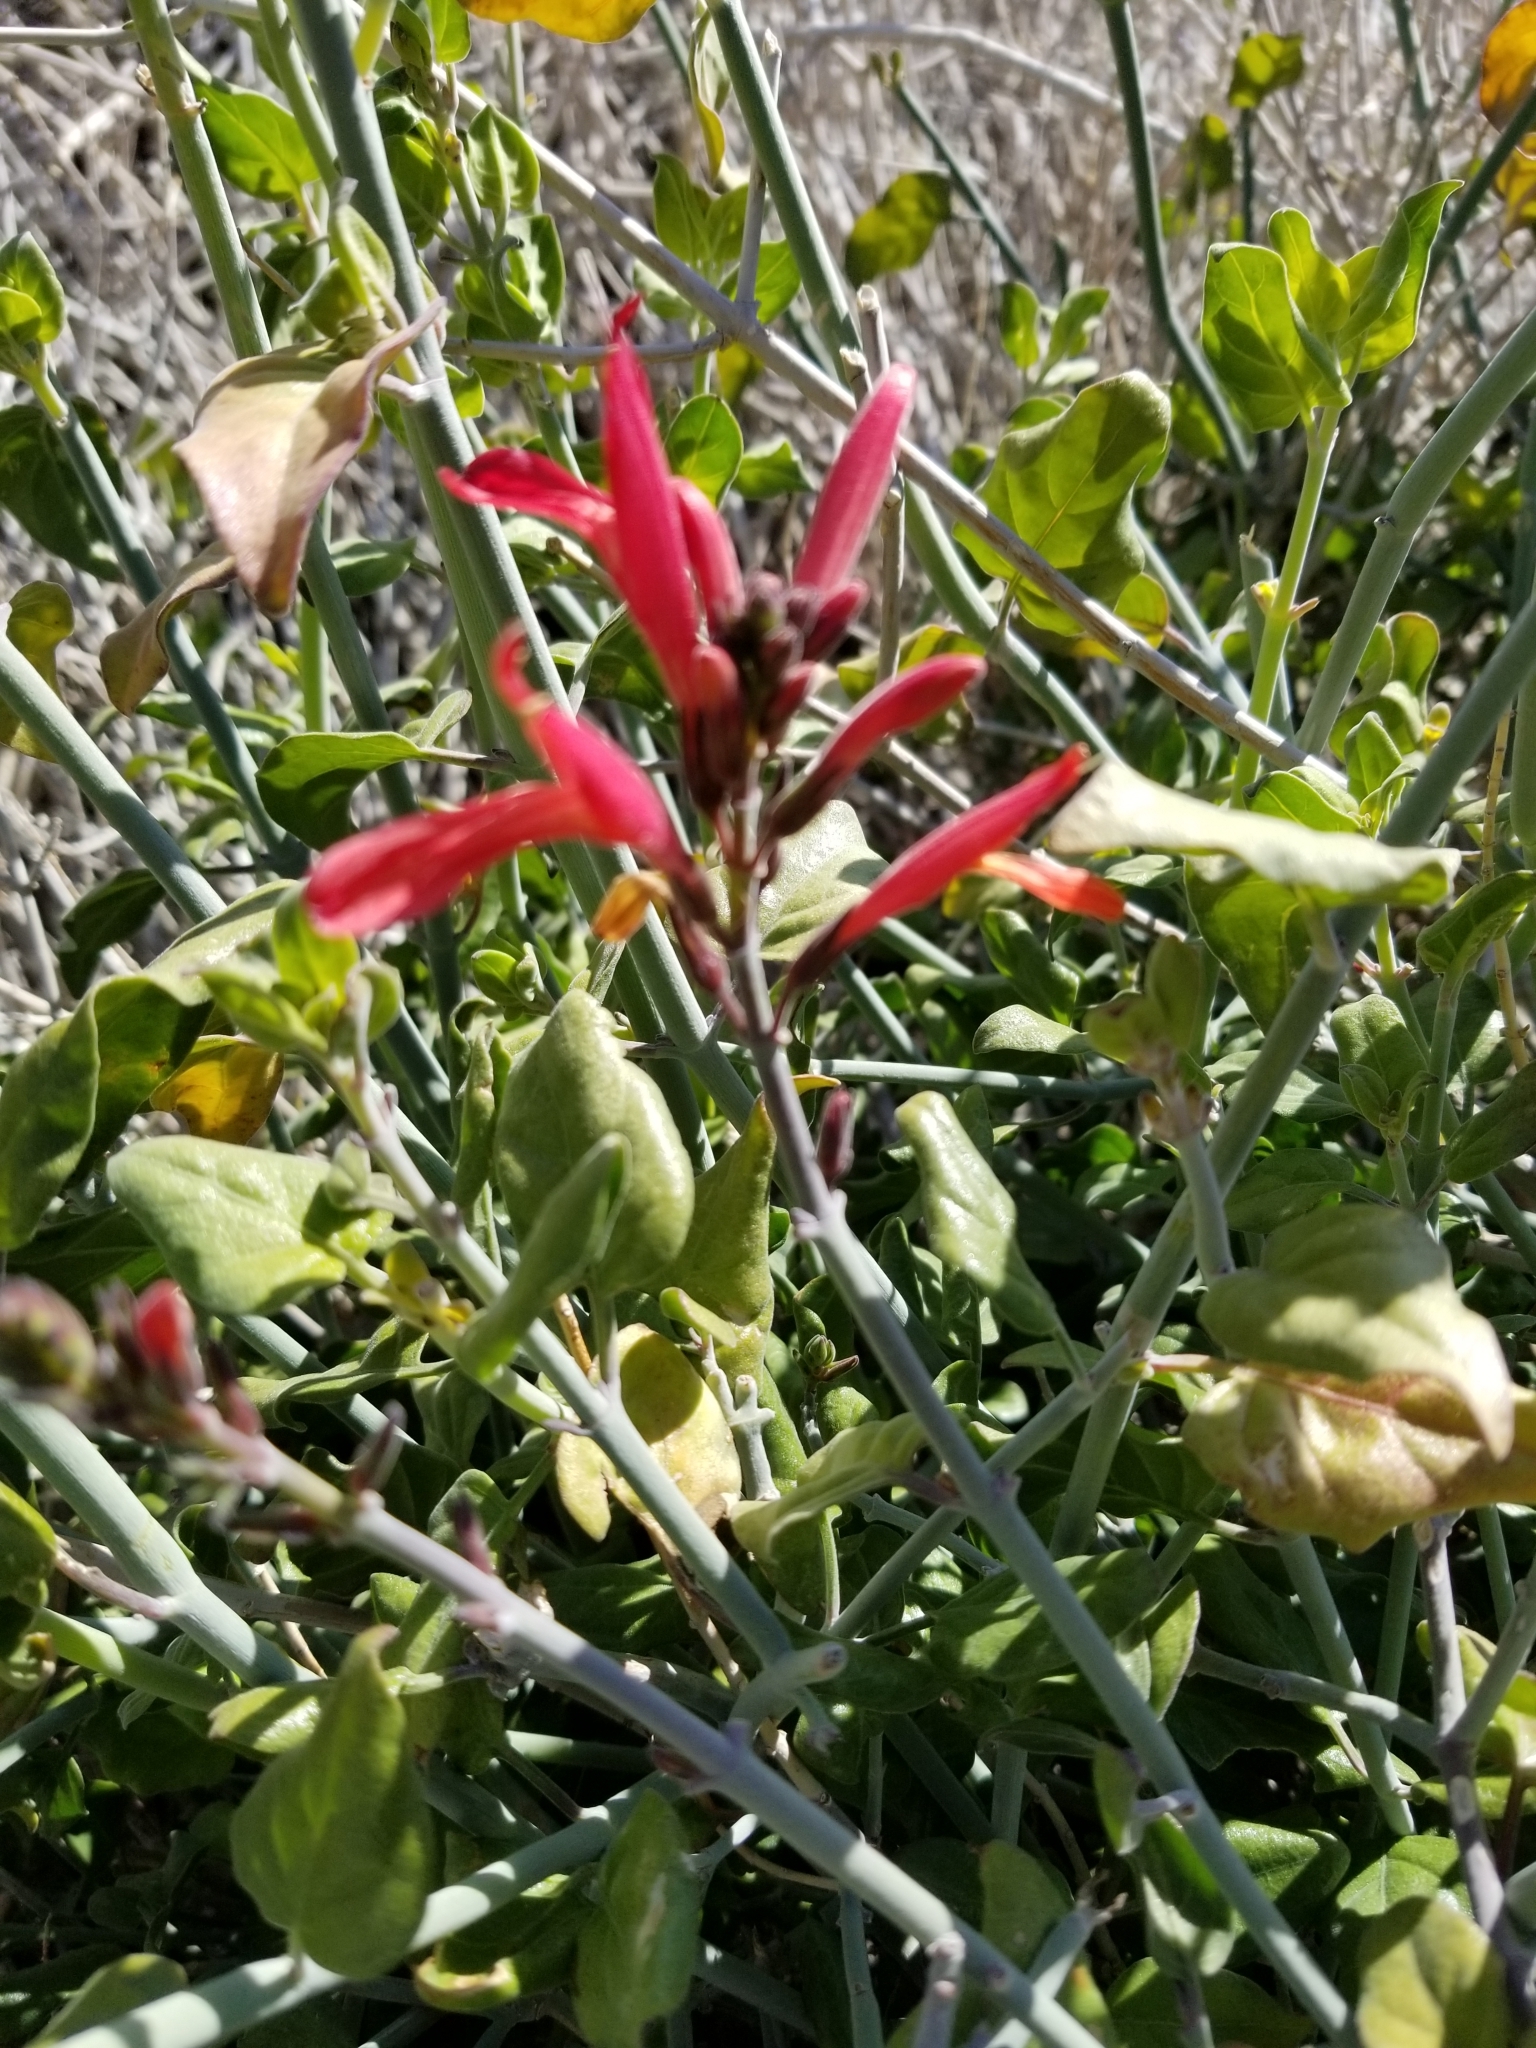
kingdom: Plantae
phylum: Tracheophyta
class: Magnoliopsida
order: Lamiales
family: Acanthaceae
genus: Justicia
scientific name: Justicia californica
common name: Chuparosa-honeysuckle
